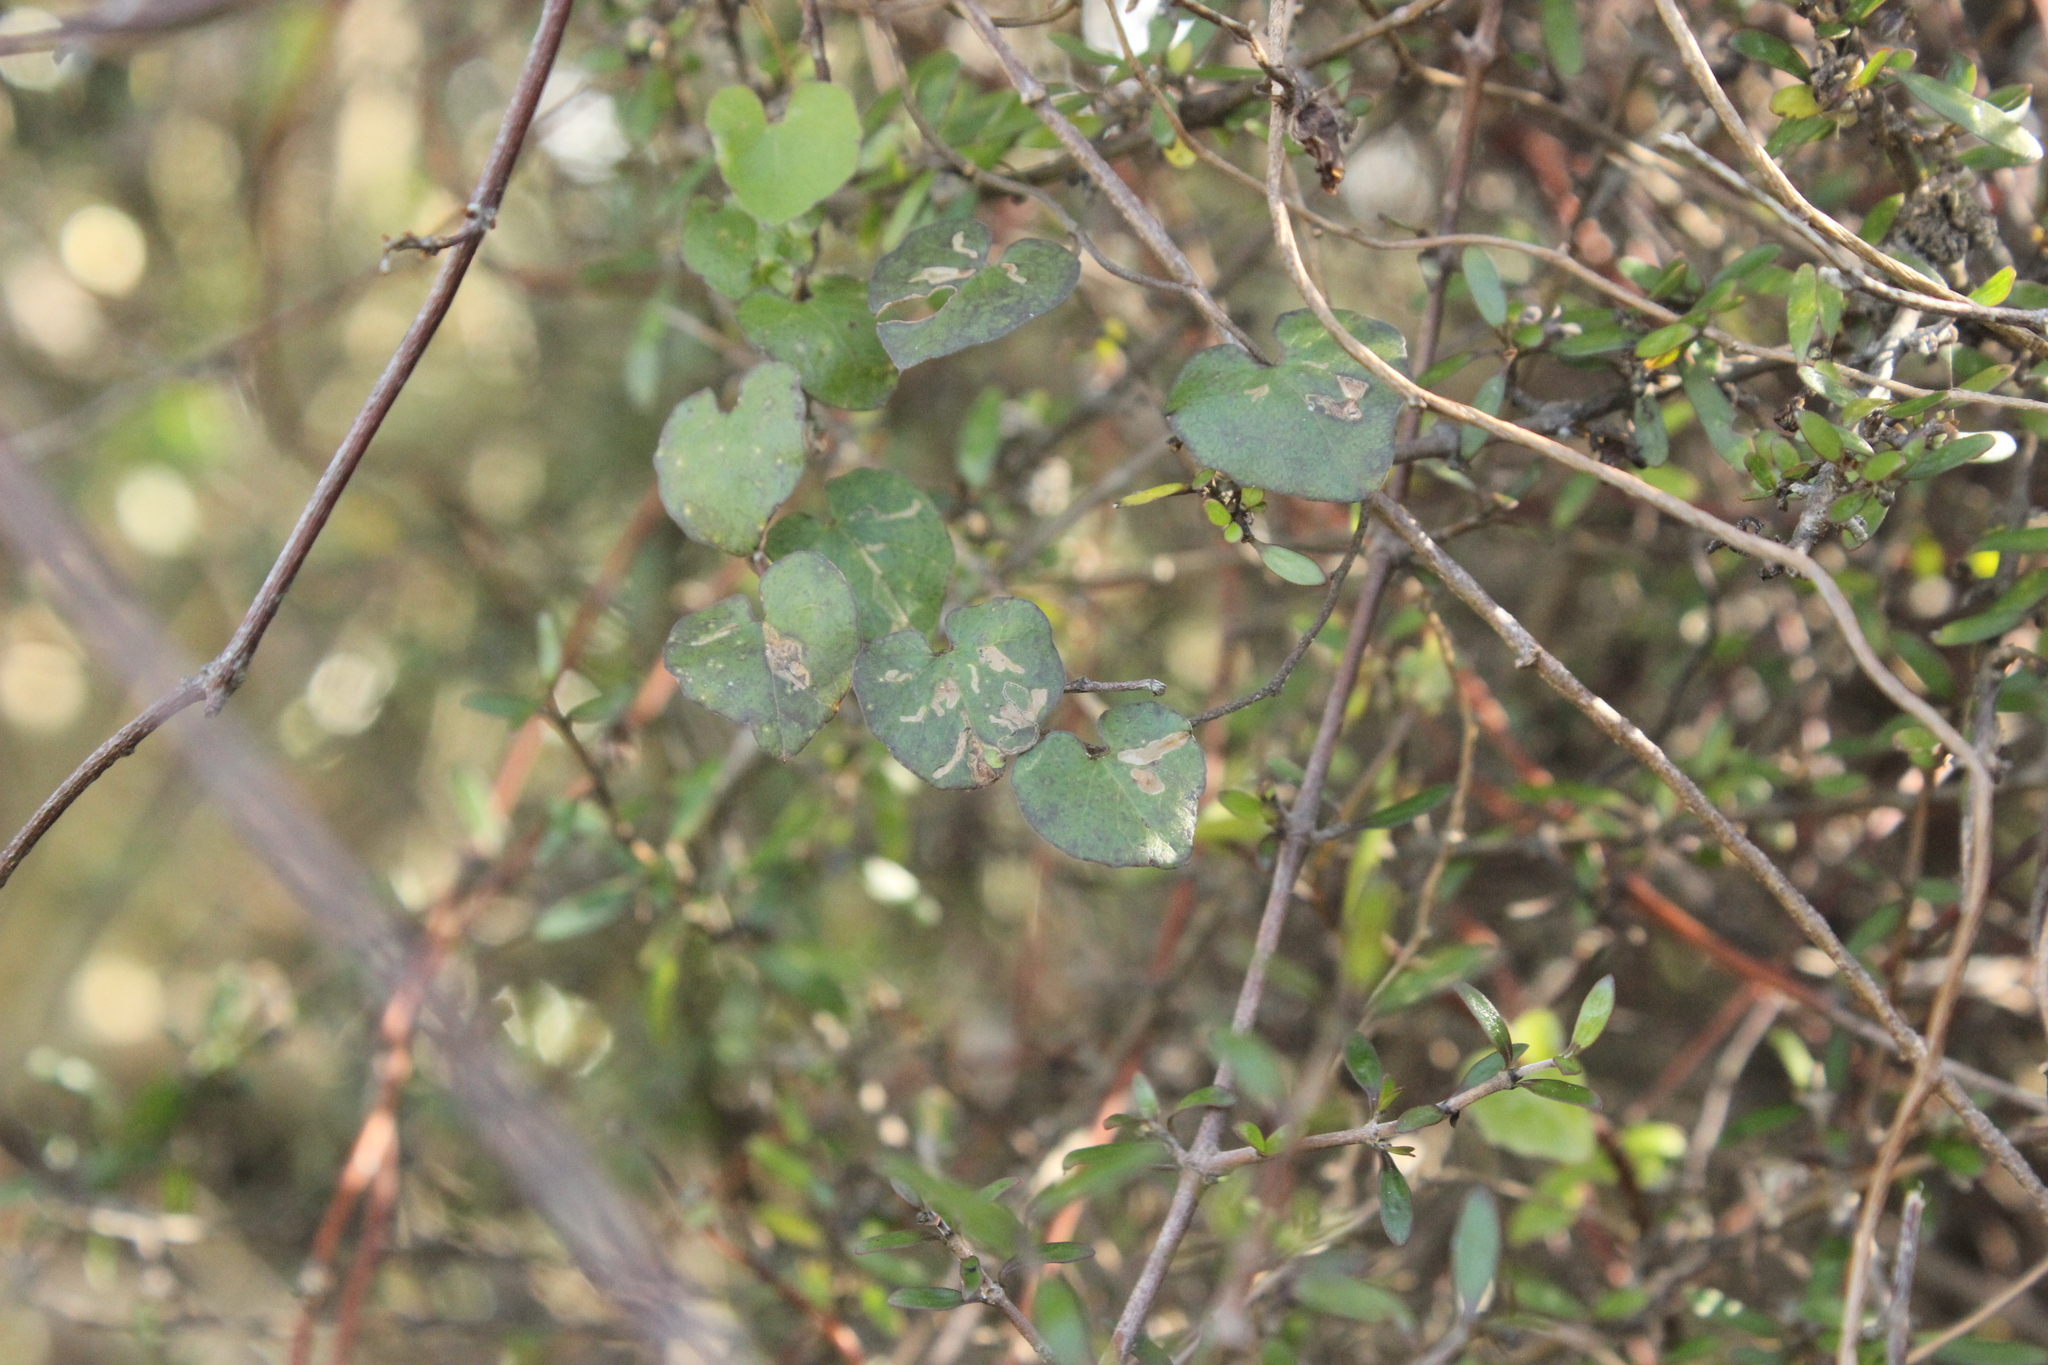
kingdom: Plantae
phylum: Tracheophyta
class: Magnoliopsida
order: Solanales
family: Convolvulaceae
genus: Calystegia
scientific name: Calystegia tuguriorum
